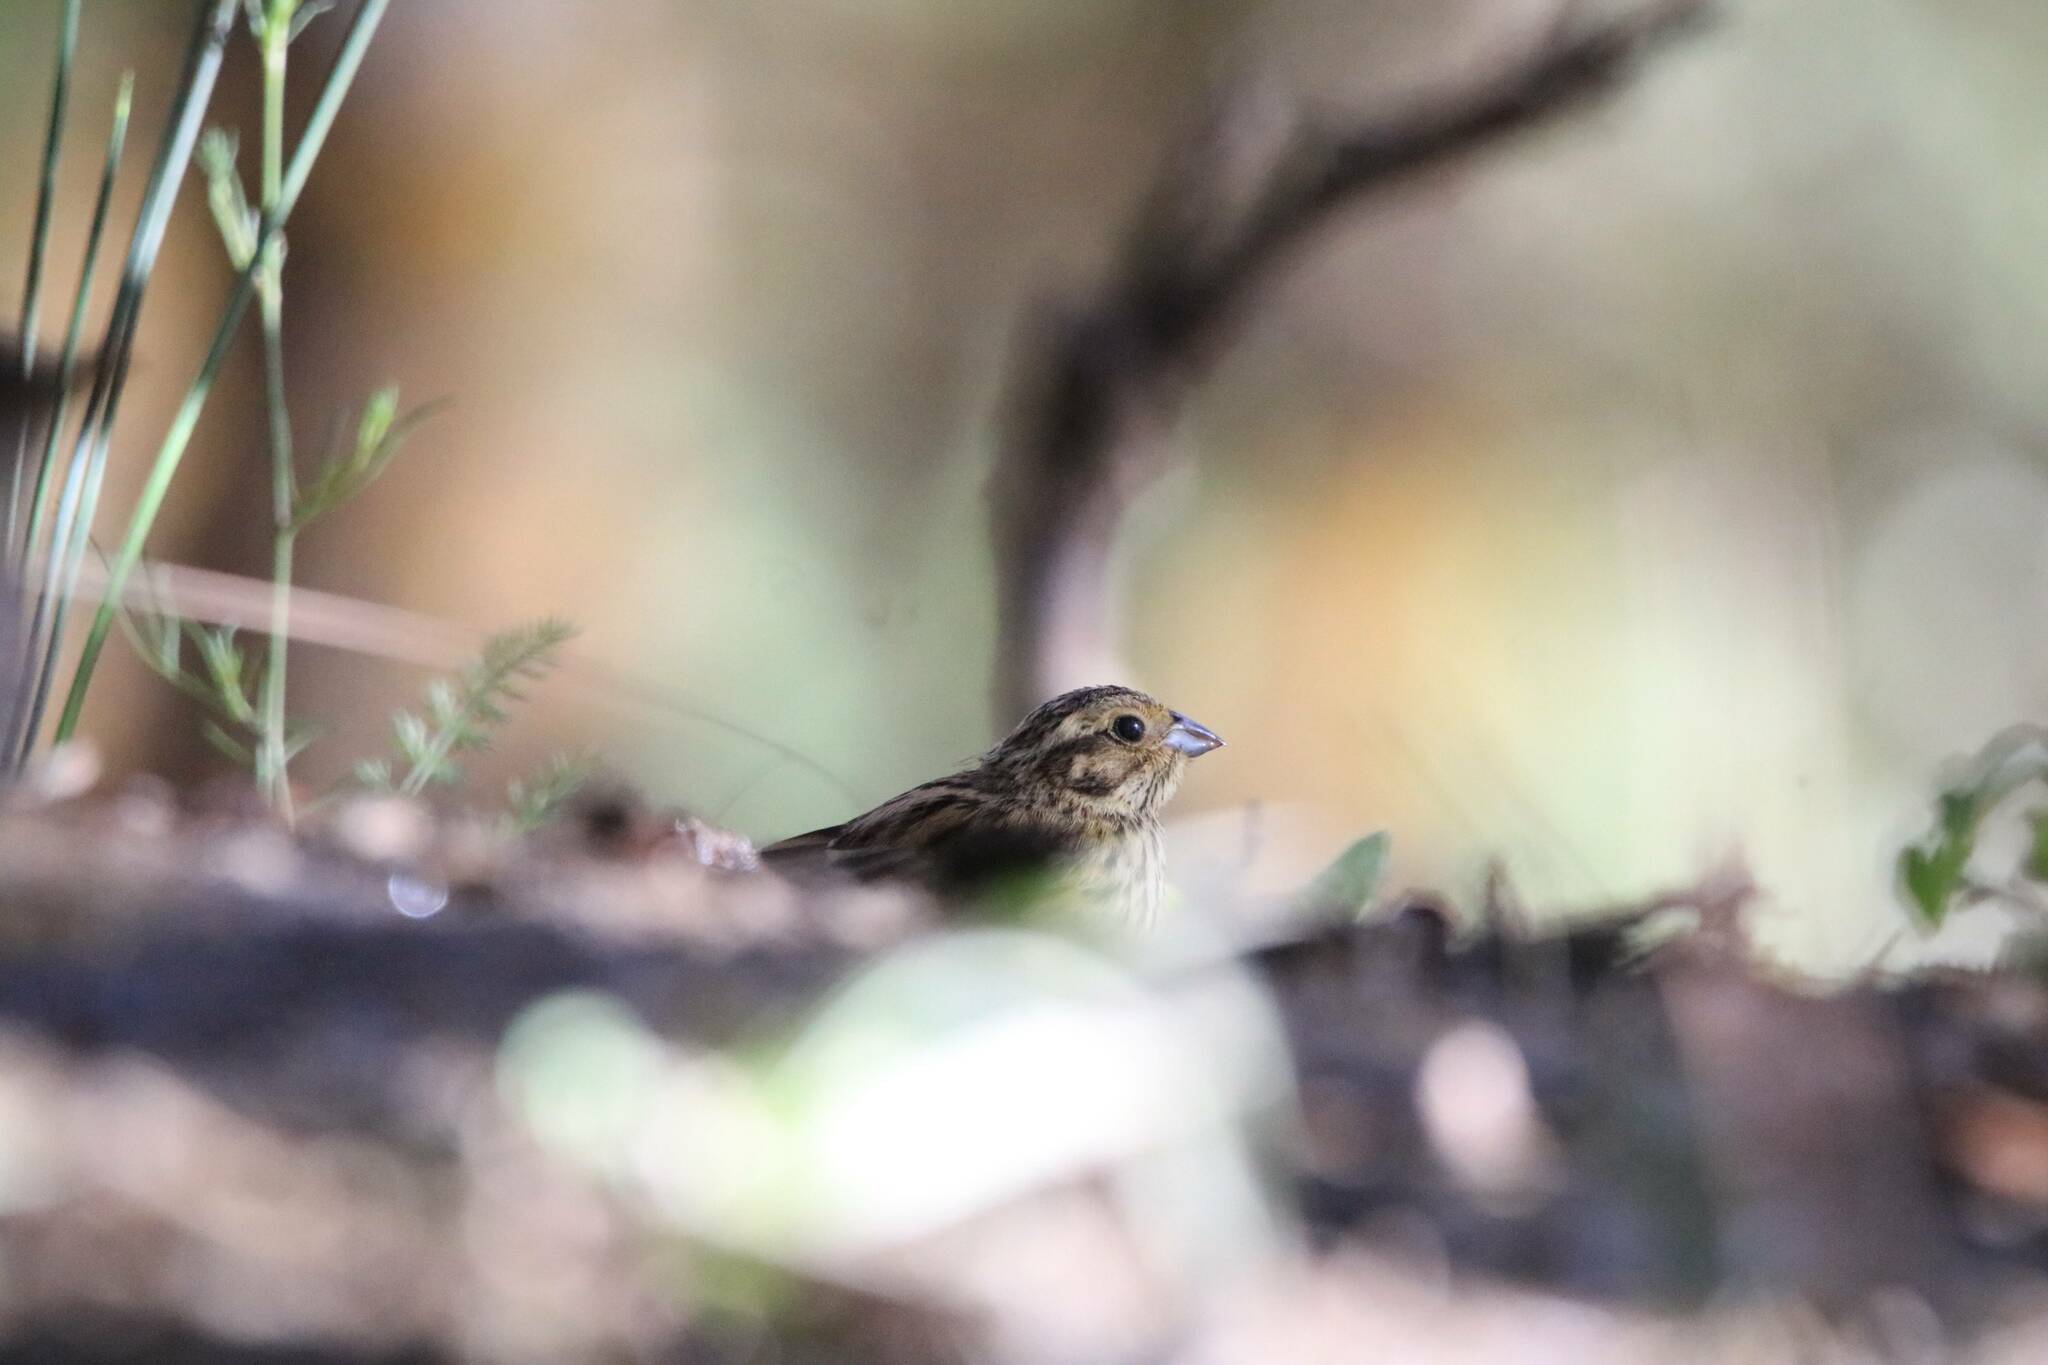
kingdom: Animalia
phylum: Chordata
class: Aves
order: Passeriformes
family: Emberizidae
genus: Emberiza
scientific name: Emberiza cirlus
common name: Cirl bunting
